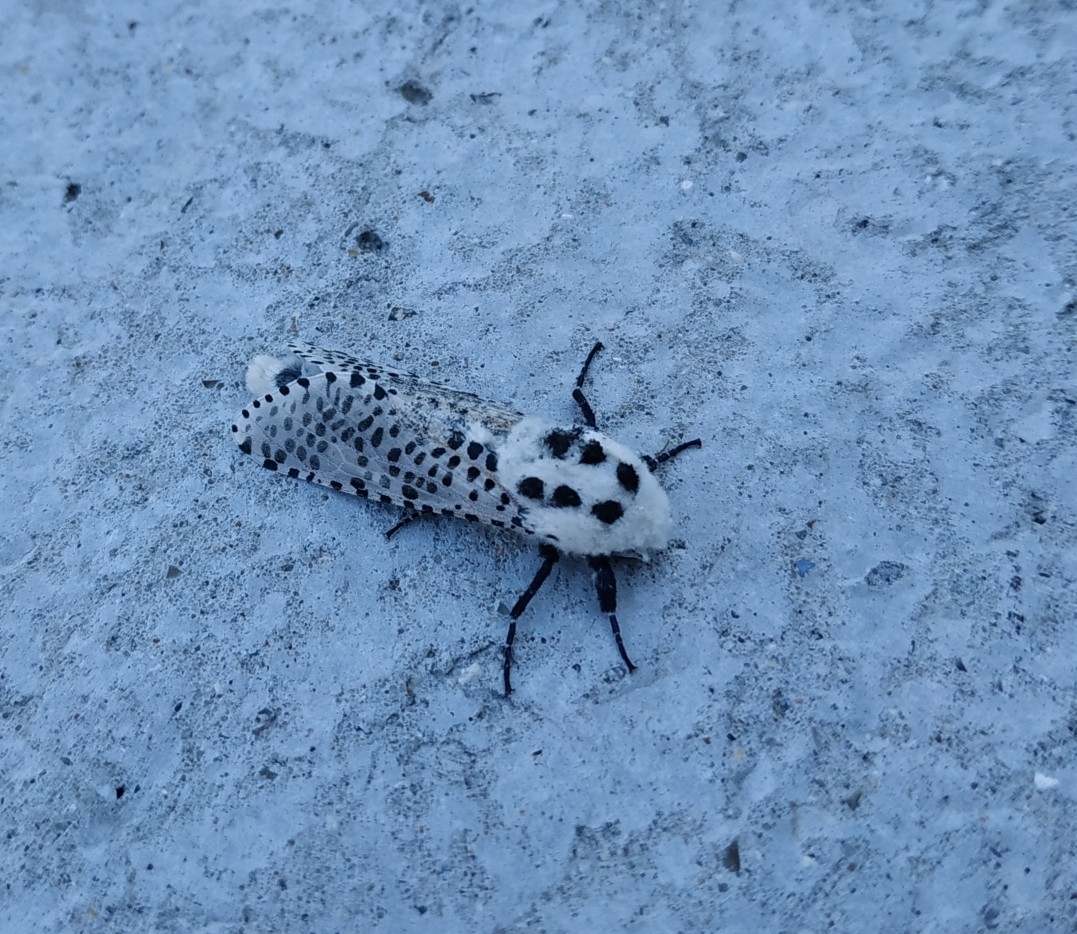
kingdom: Animalia
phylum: Arthropoda
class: Insecta
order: Lepidoptera
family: Cossidae
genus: Zeuzera
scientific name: Zeuzera pyrina
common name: Leopard moth
